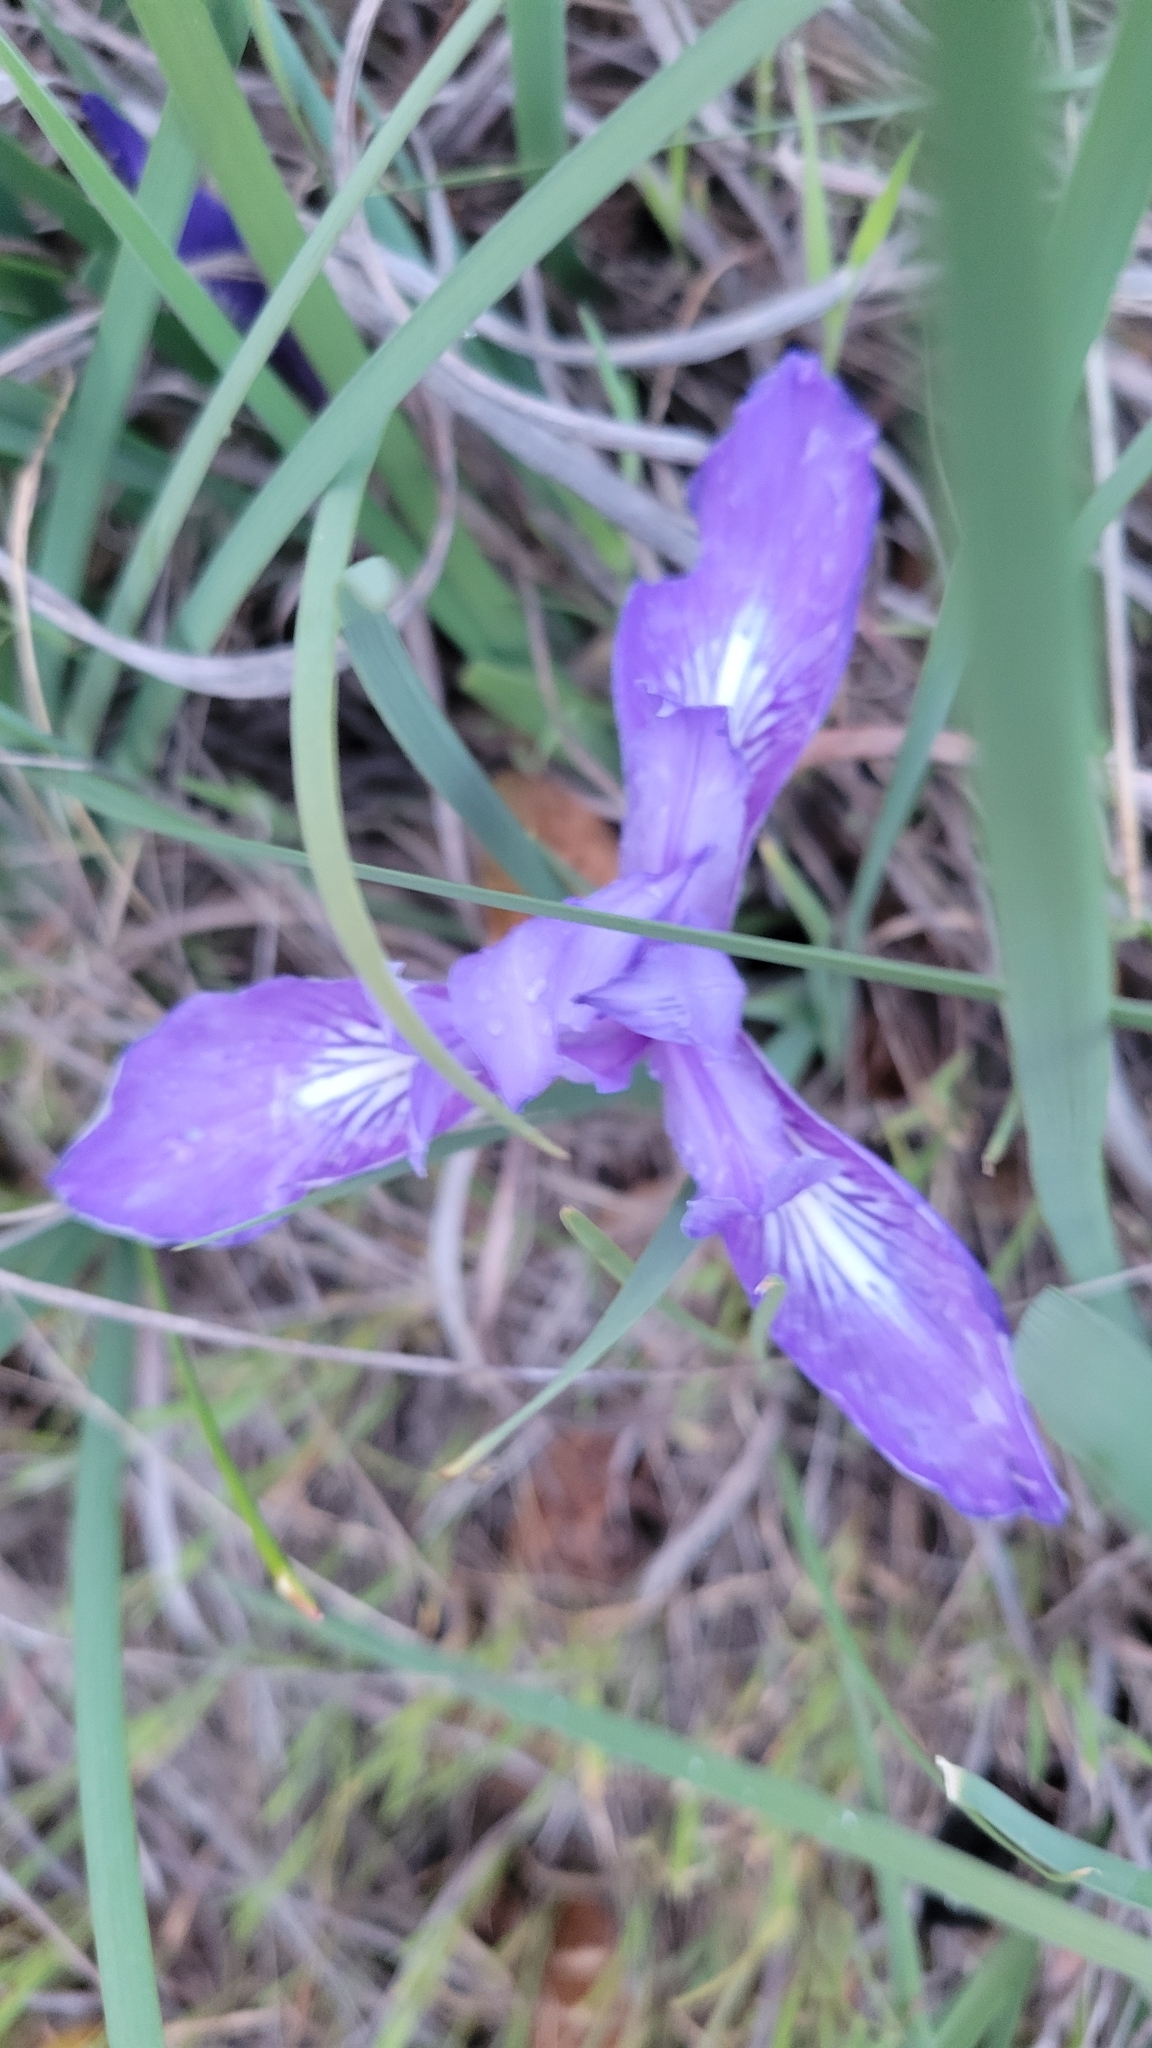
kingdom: Plantae
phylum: Tracheophyta
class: Liliopsida
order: Asparagales
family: Iridaceae
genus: Iris
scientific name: Iris macrosiphon
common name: Ground iris
